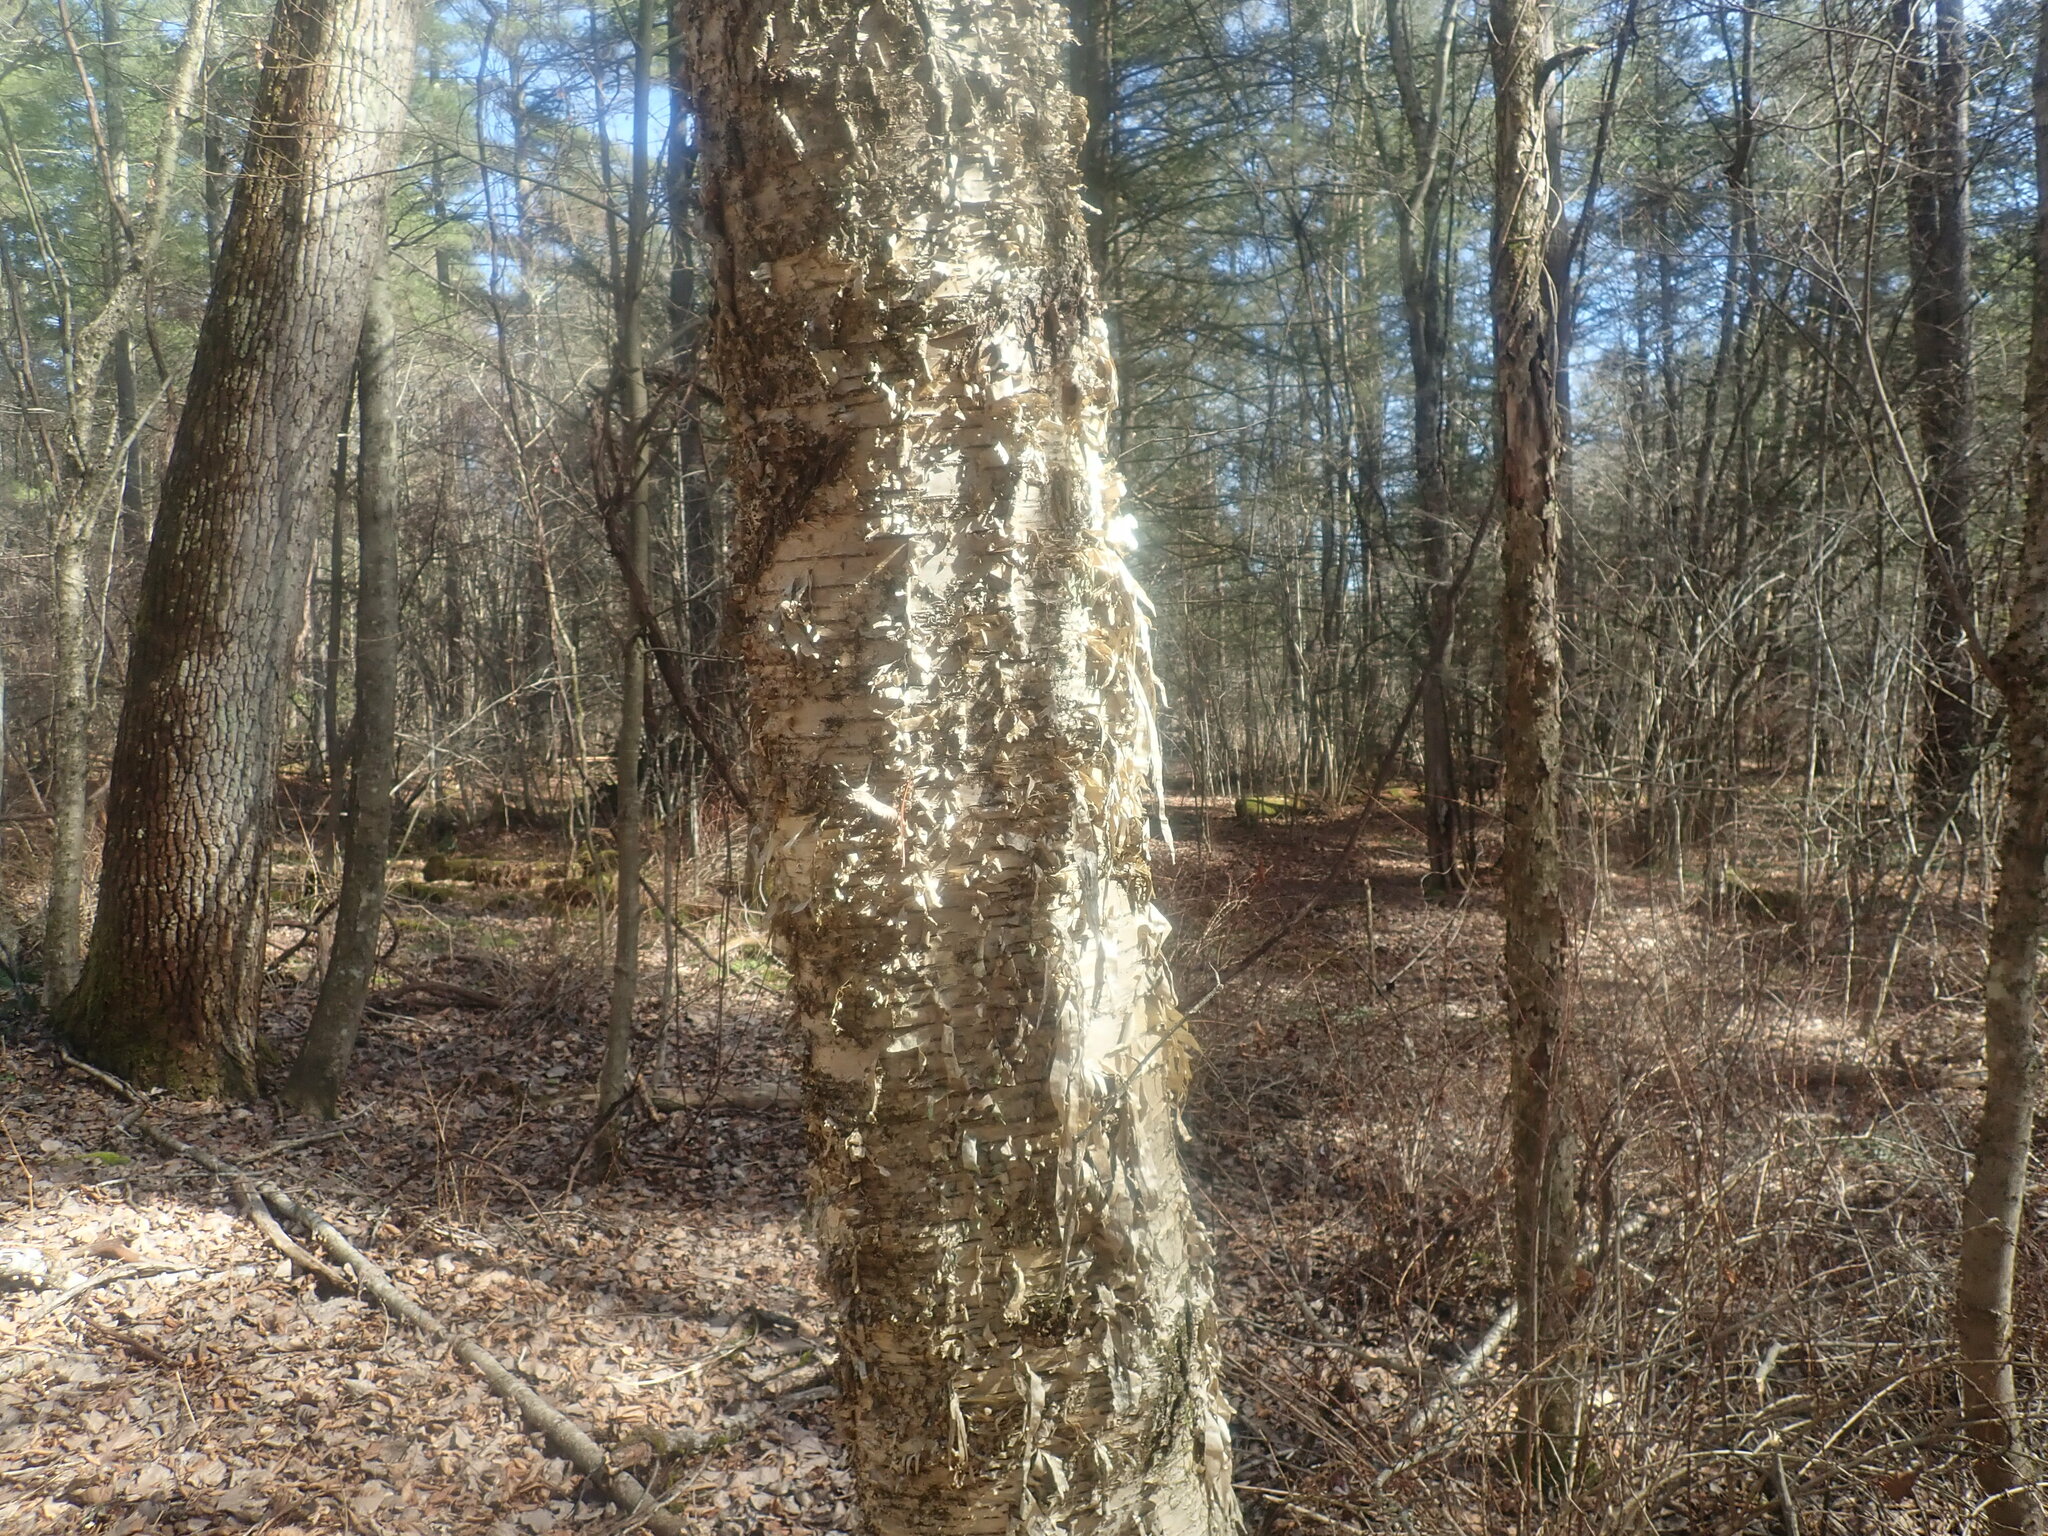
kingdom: Plantae
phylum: Tracheophyta
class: Magnoliopsida
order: Fagales
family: Betulaceae
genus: Betula
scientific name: Betula alleghaniensis
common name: Yellow birch
